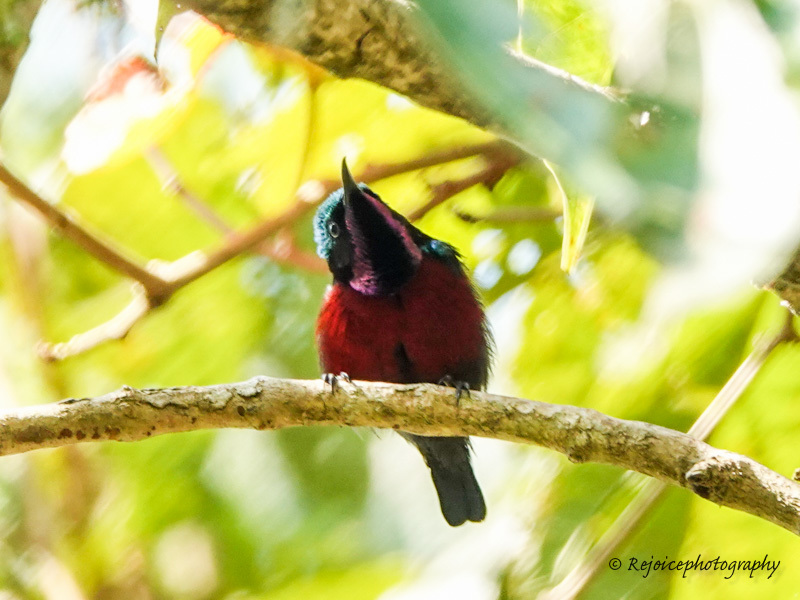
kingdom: Animalia
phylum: Chordata
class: Aves
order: Passeriformes
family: Nectariniidae
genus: Leptocoma
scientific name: Leptocoma brasiliana
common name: Van hasselt's sunbird
